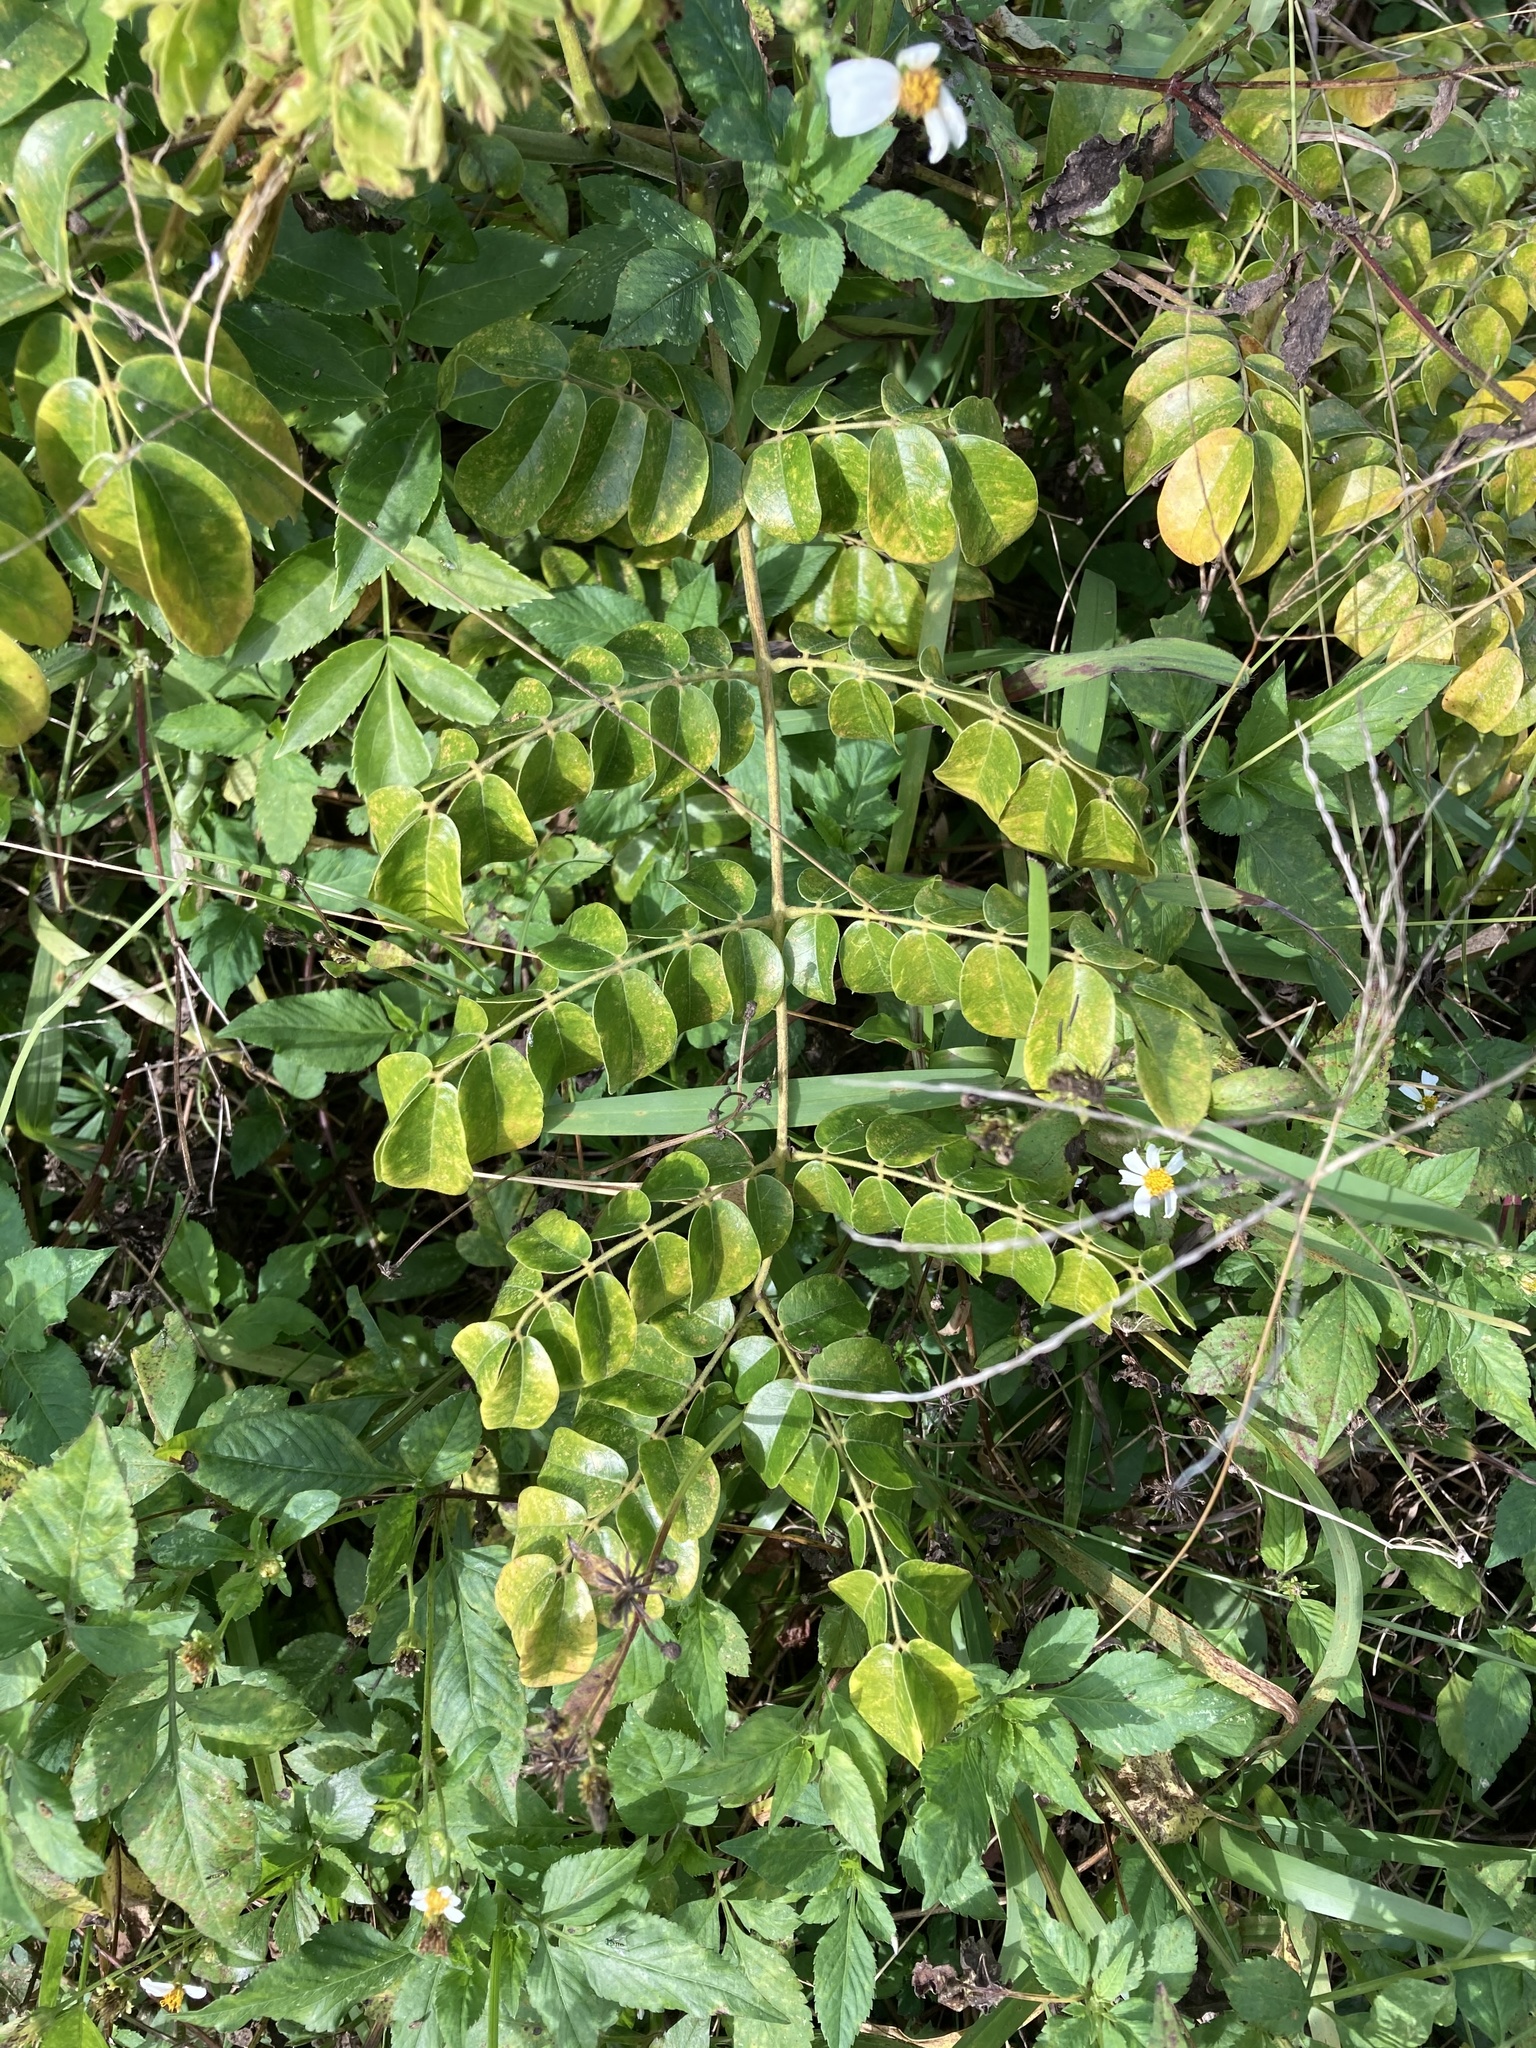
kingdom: Plantae
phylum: Tracheophyta
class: Magnoliopsida
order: Fabales
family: Fabaceae
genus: Guilandina
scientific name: Guilandina bonduc
